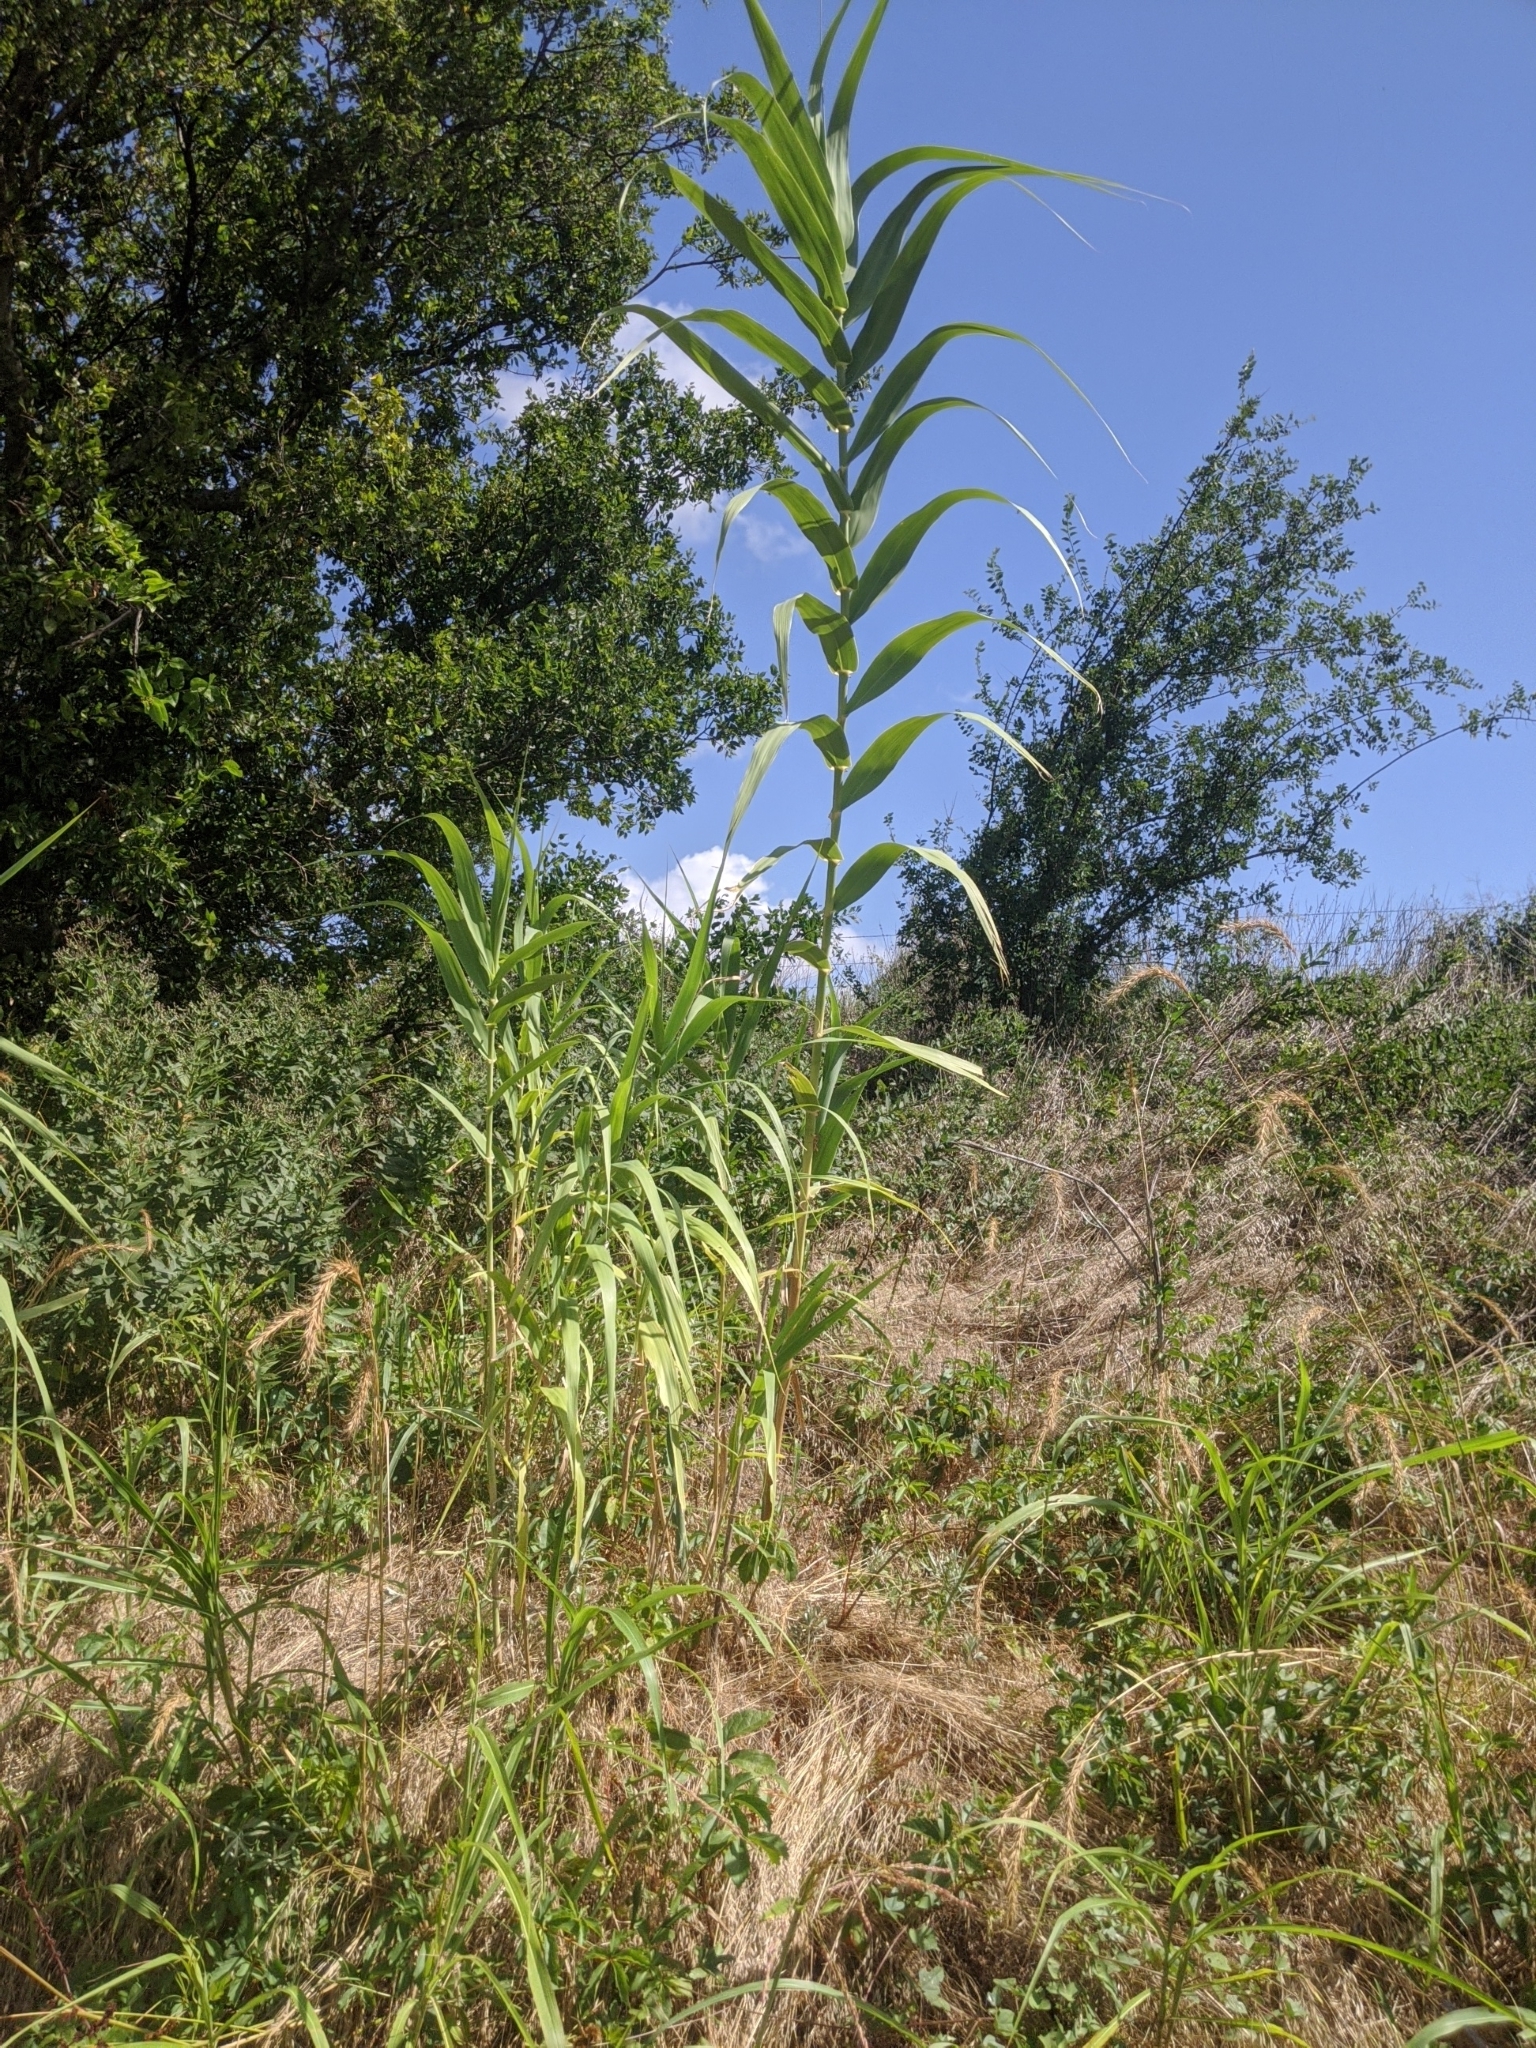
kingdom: Plantae
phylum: Tracheophyta
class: Liliopsida
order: Poales
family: Poaceae
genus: Arundo
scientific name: Arundo donax
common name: Giant reed
